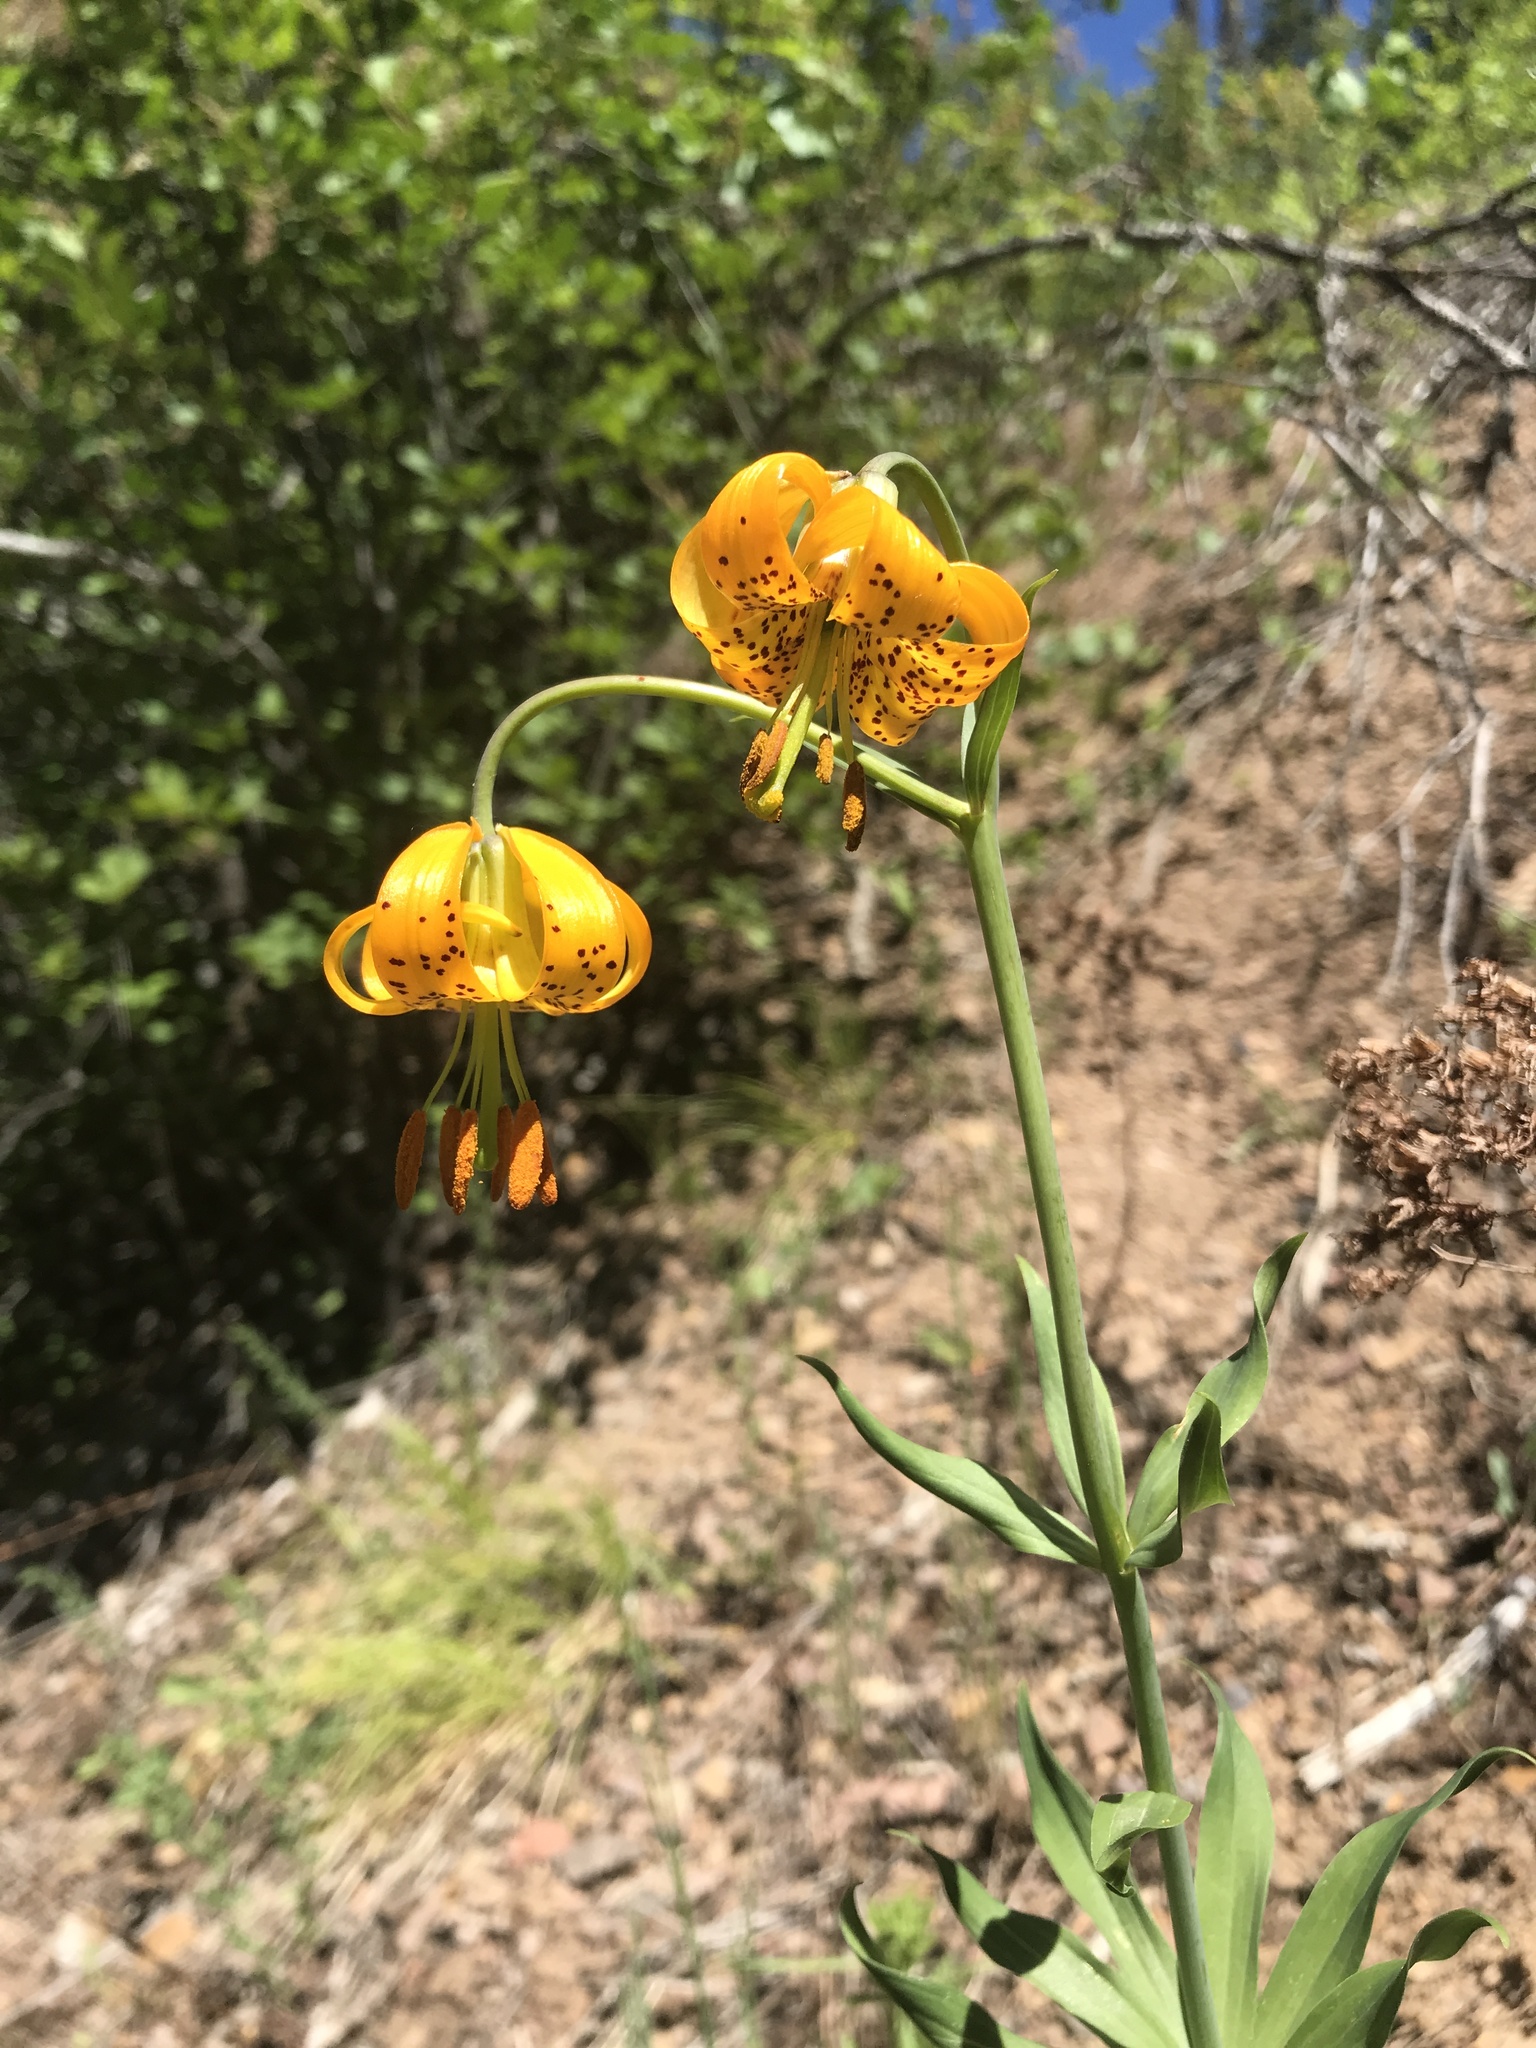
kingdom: Plantae
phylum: Tracheophyta
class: Liliopsida
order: Liliales
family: Liliaceae
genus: Lilium
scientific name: Lilium columbianum
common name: Columbia lily
